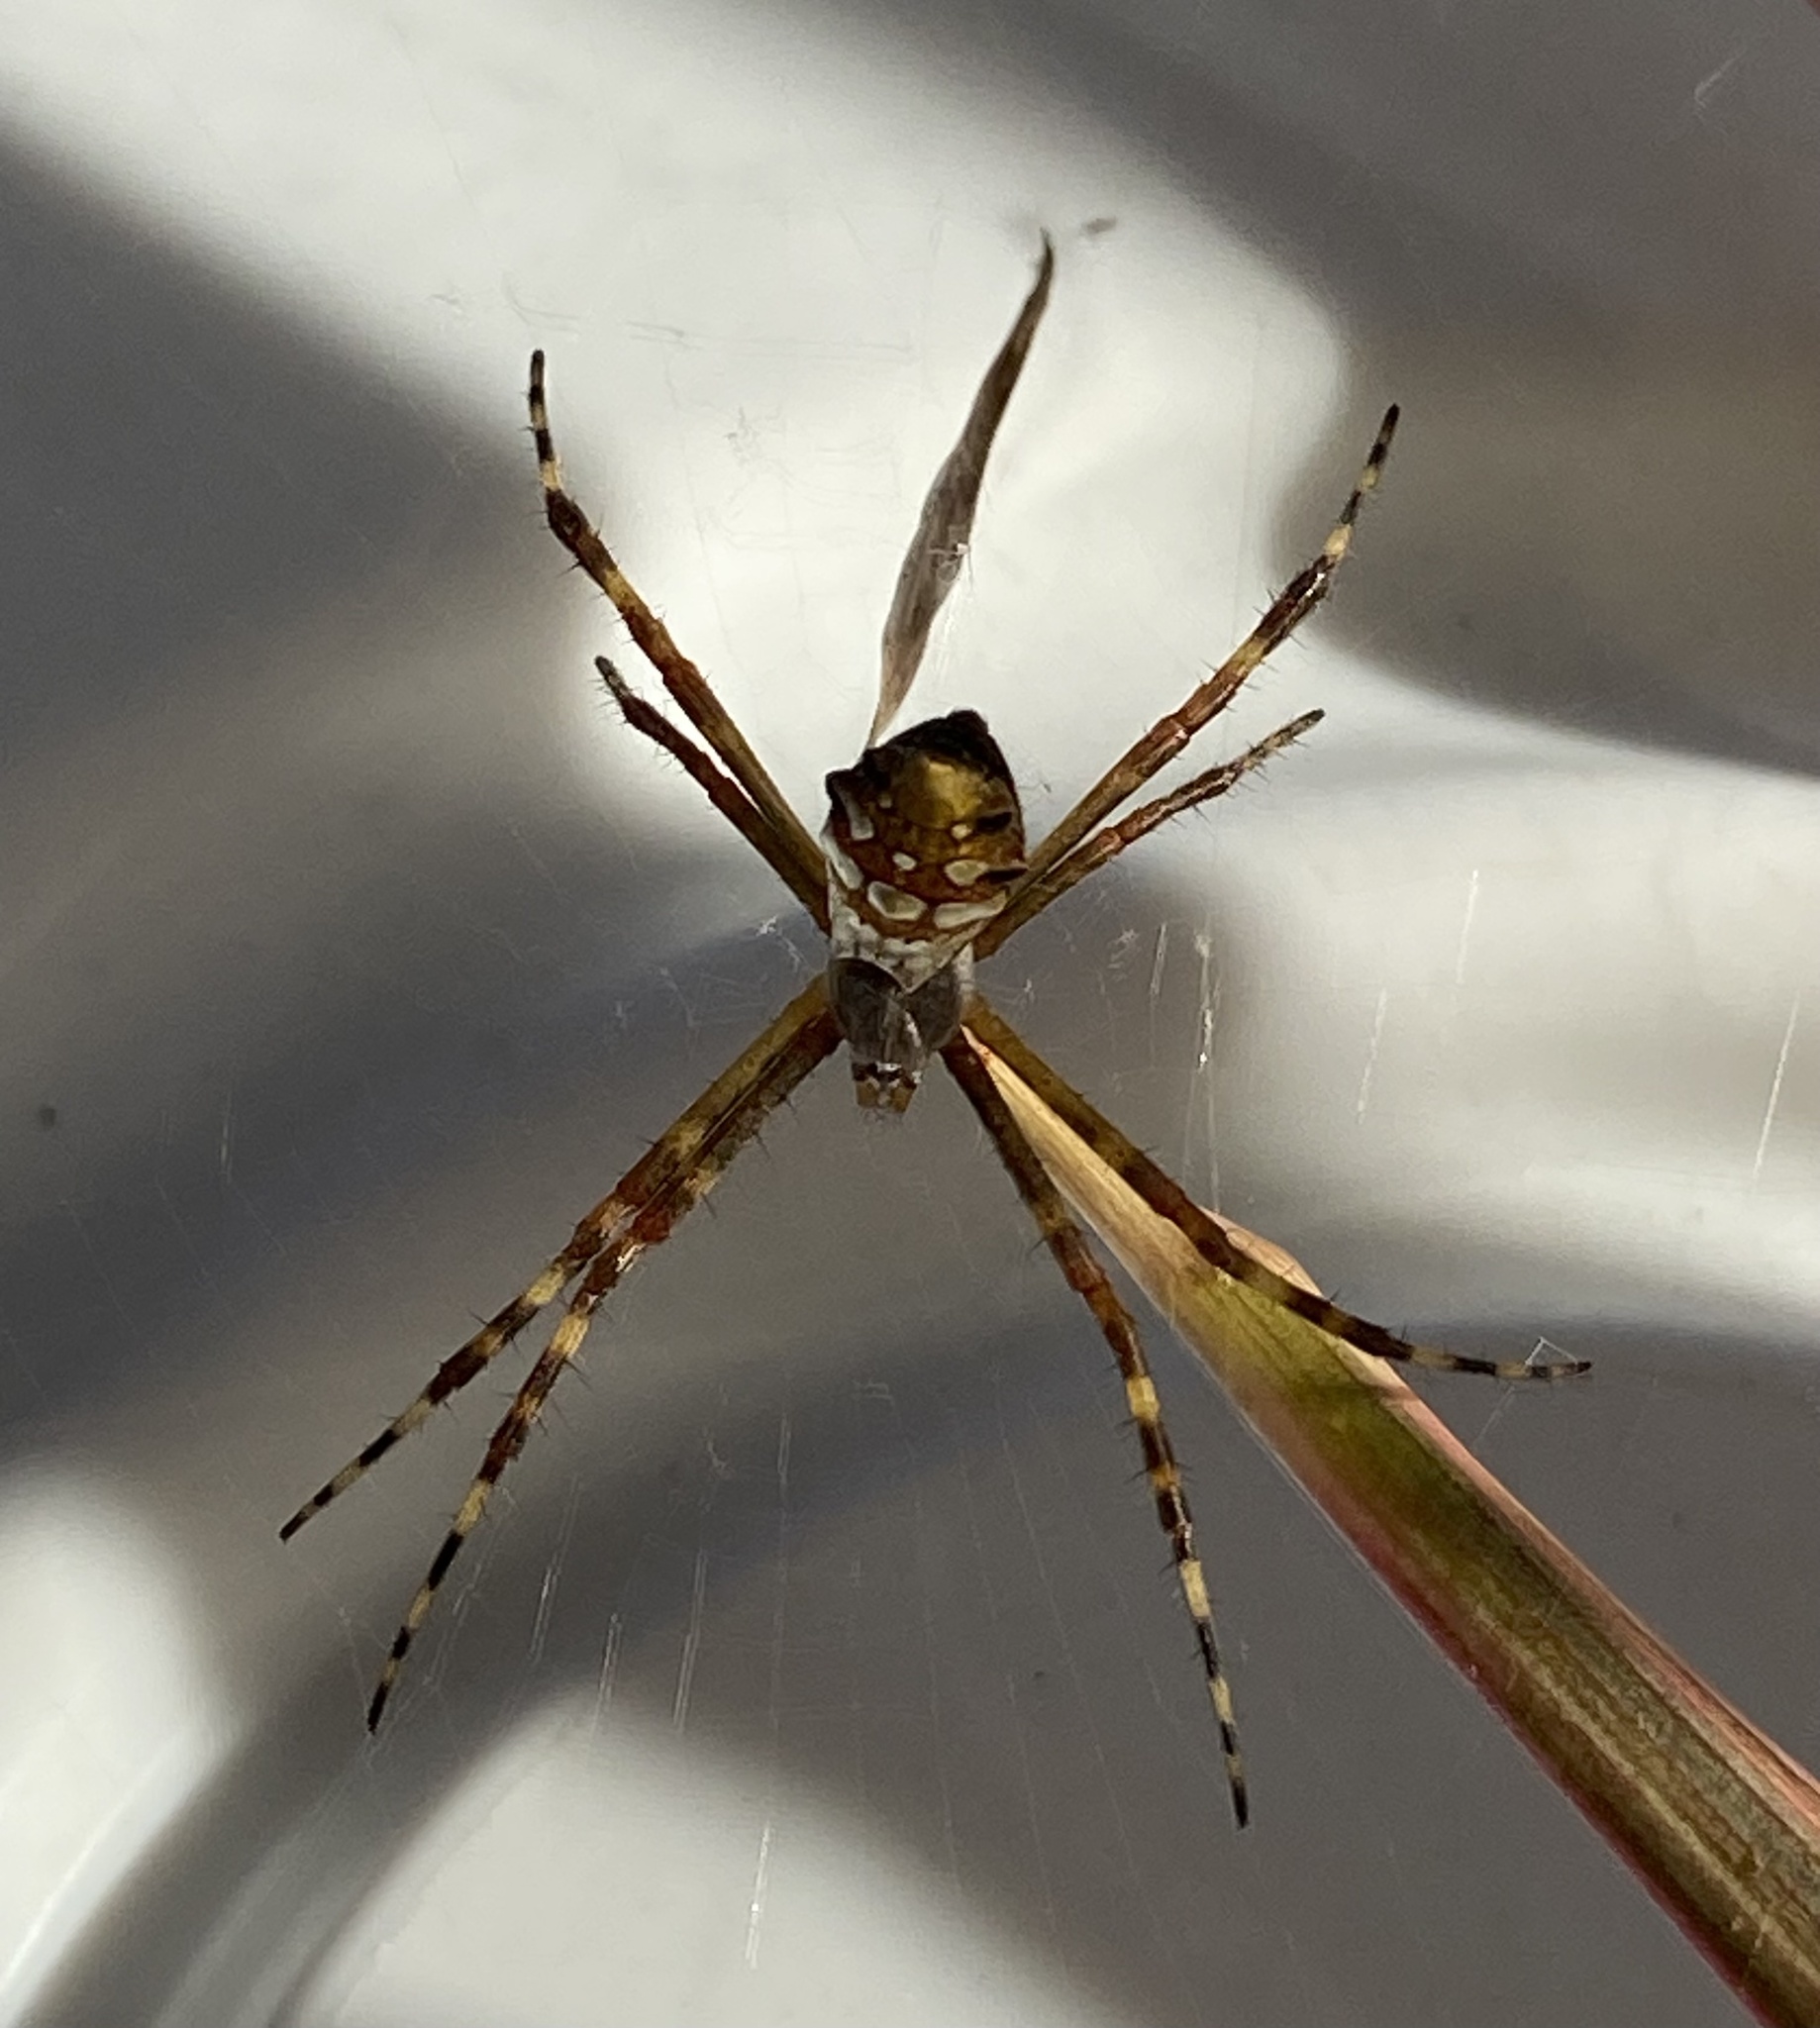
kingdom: Animalia
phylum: Arthropoda
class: Arachnida
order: Araneae
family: Araneidae
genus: Argiope
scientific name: Argiope argentata
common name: Orb weavers
